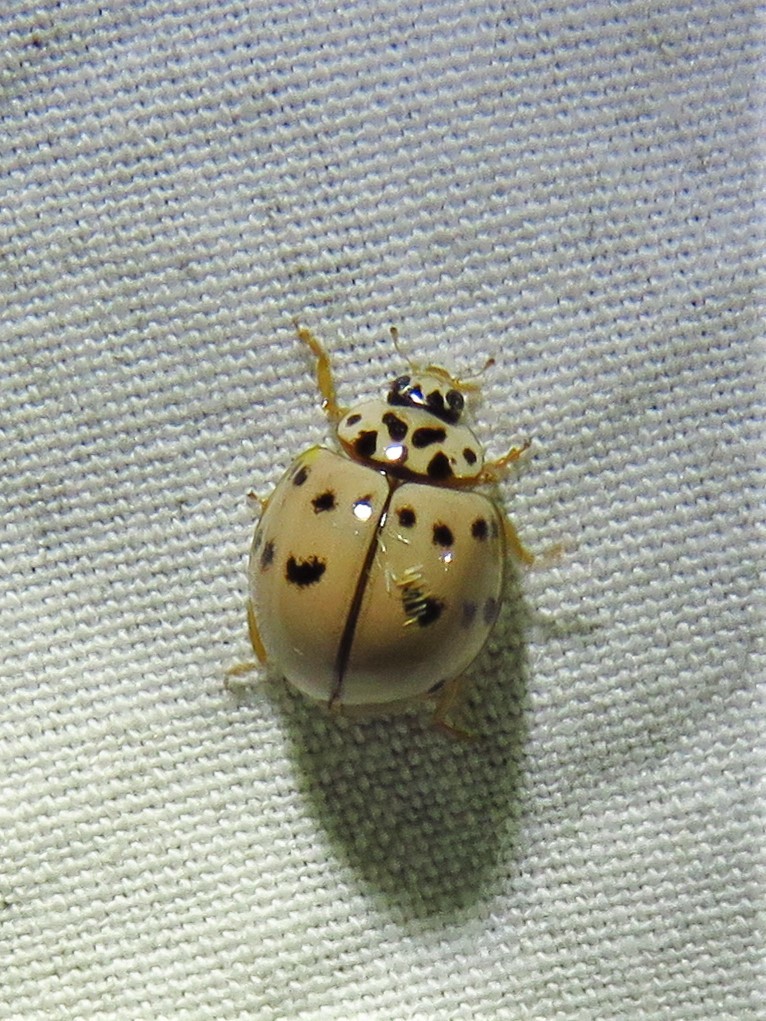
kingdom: Animalia
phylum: Arthropoda
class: Insecta
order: Coleoptera
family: Coccinellidae
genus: Olla
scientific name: Olla v-nigrum
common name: Ashy gray lady beetle
